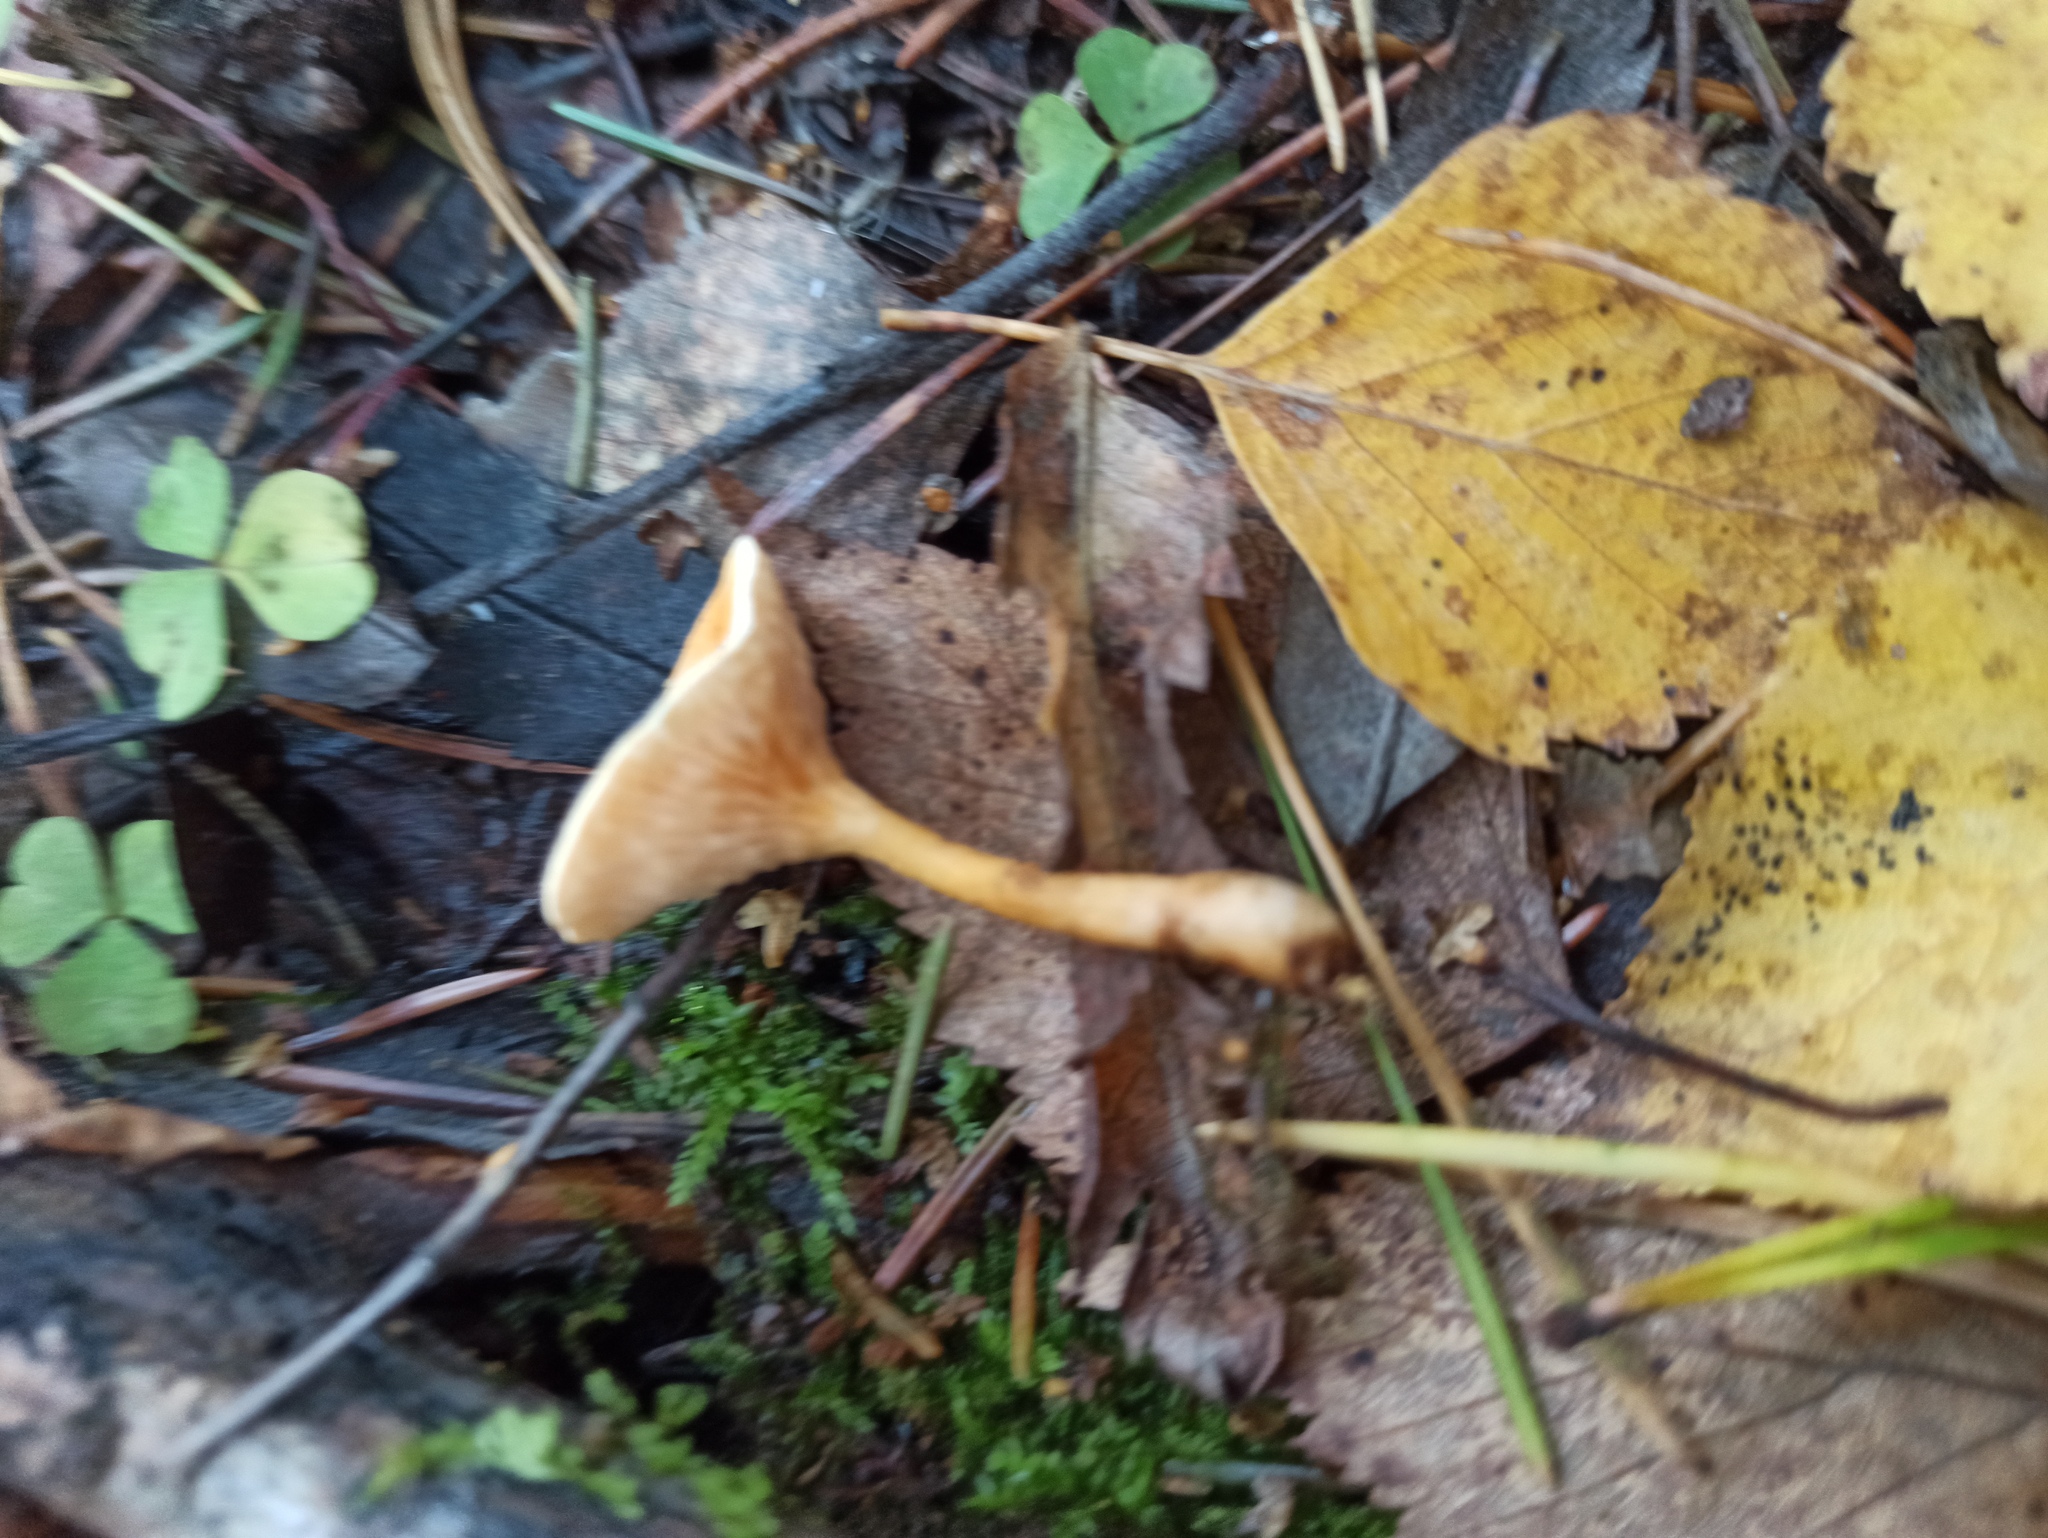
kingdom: Fungi
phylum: Basidiomycota
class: Agaricomycetes
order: Boletales
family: Hygrophoropsidaceae
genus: Hygrophoropsis
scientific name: Hygrophoropsis aurantiaca
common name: False chanterelle
